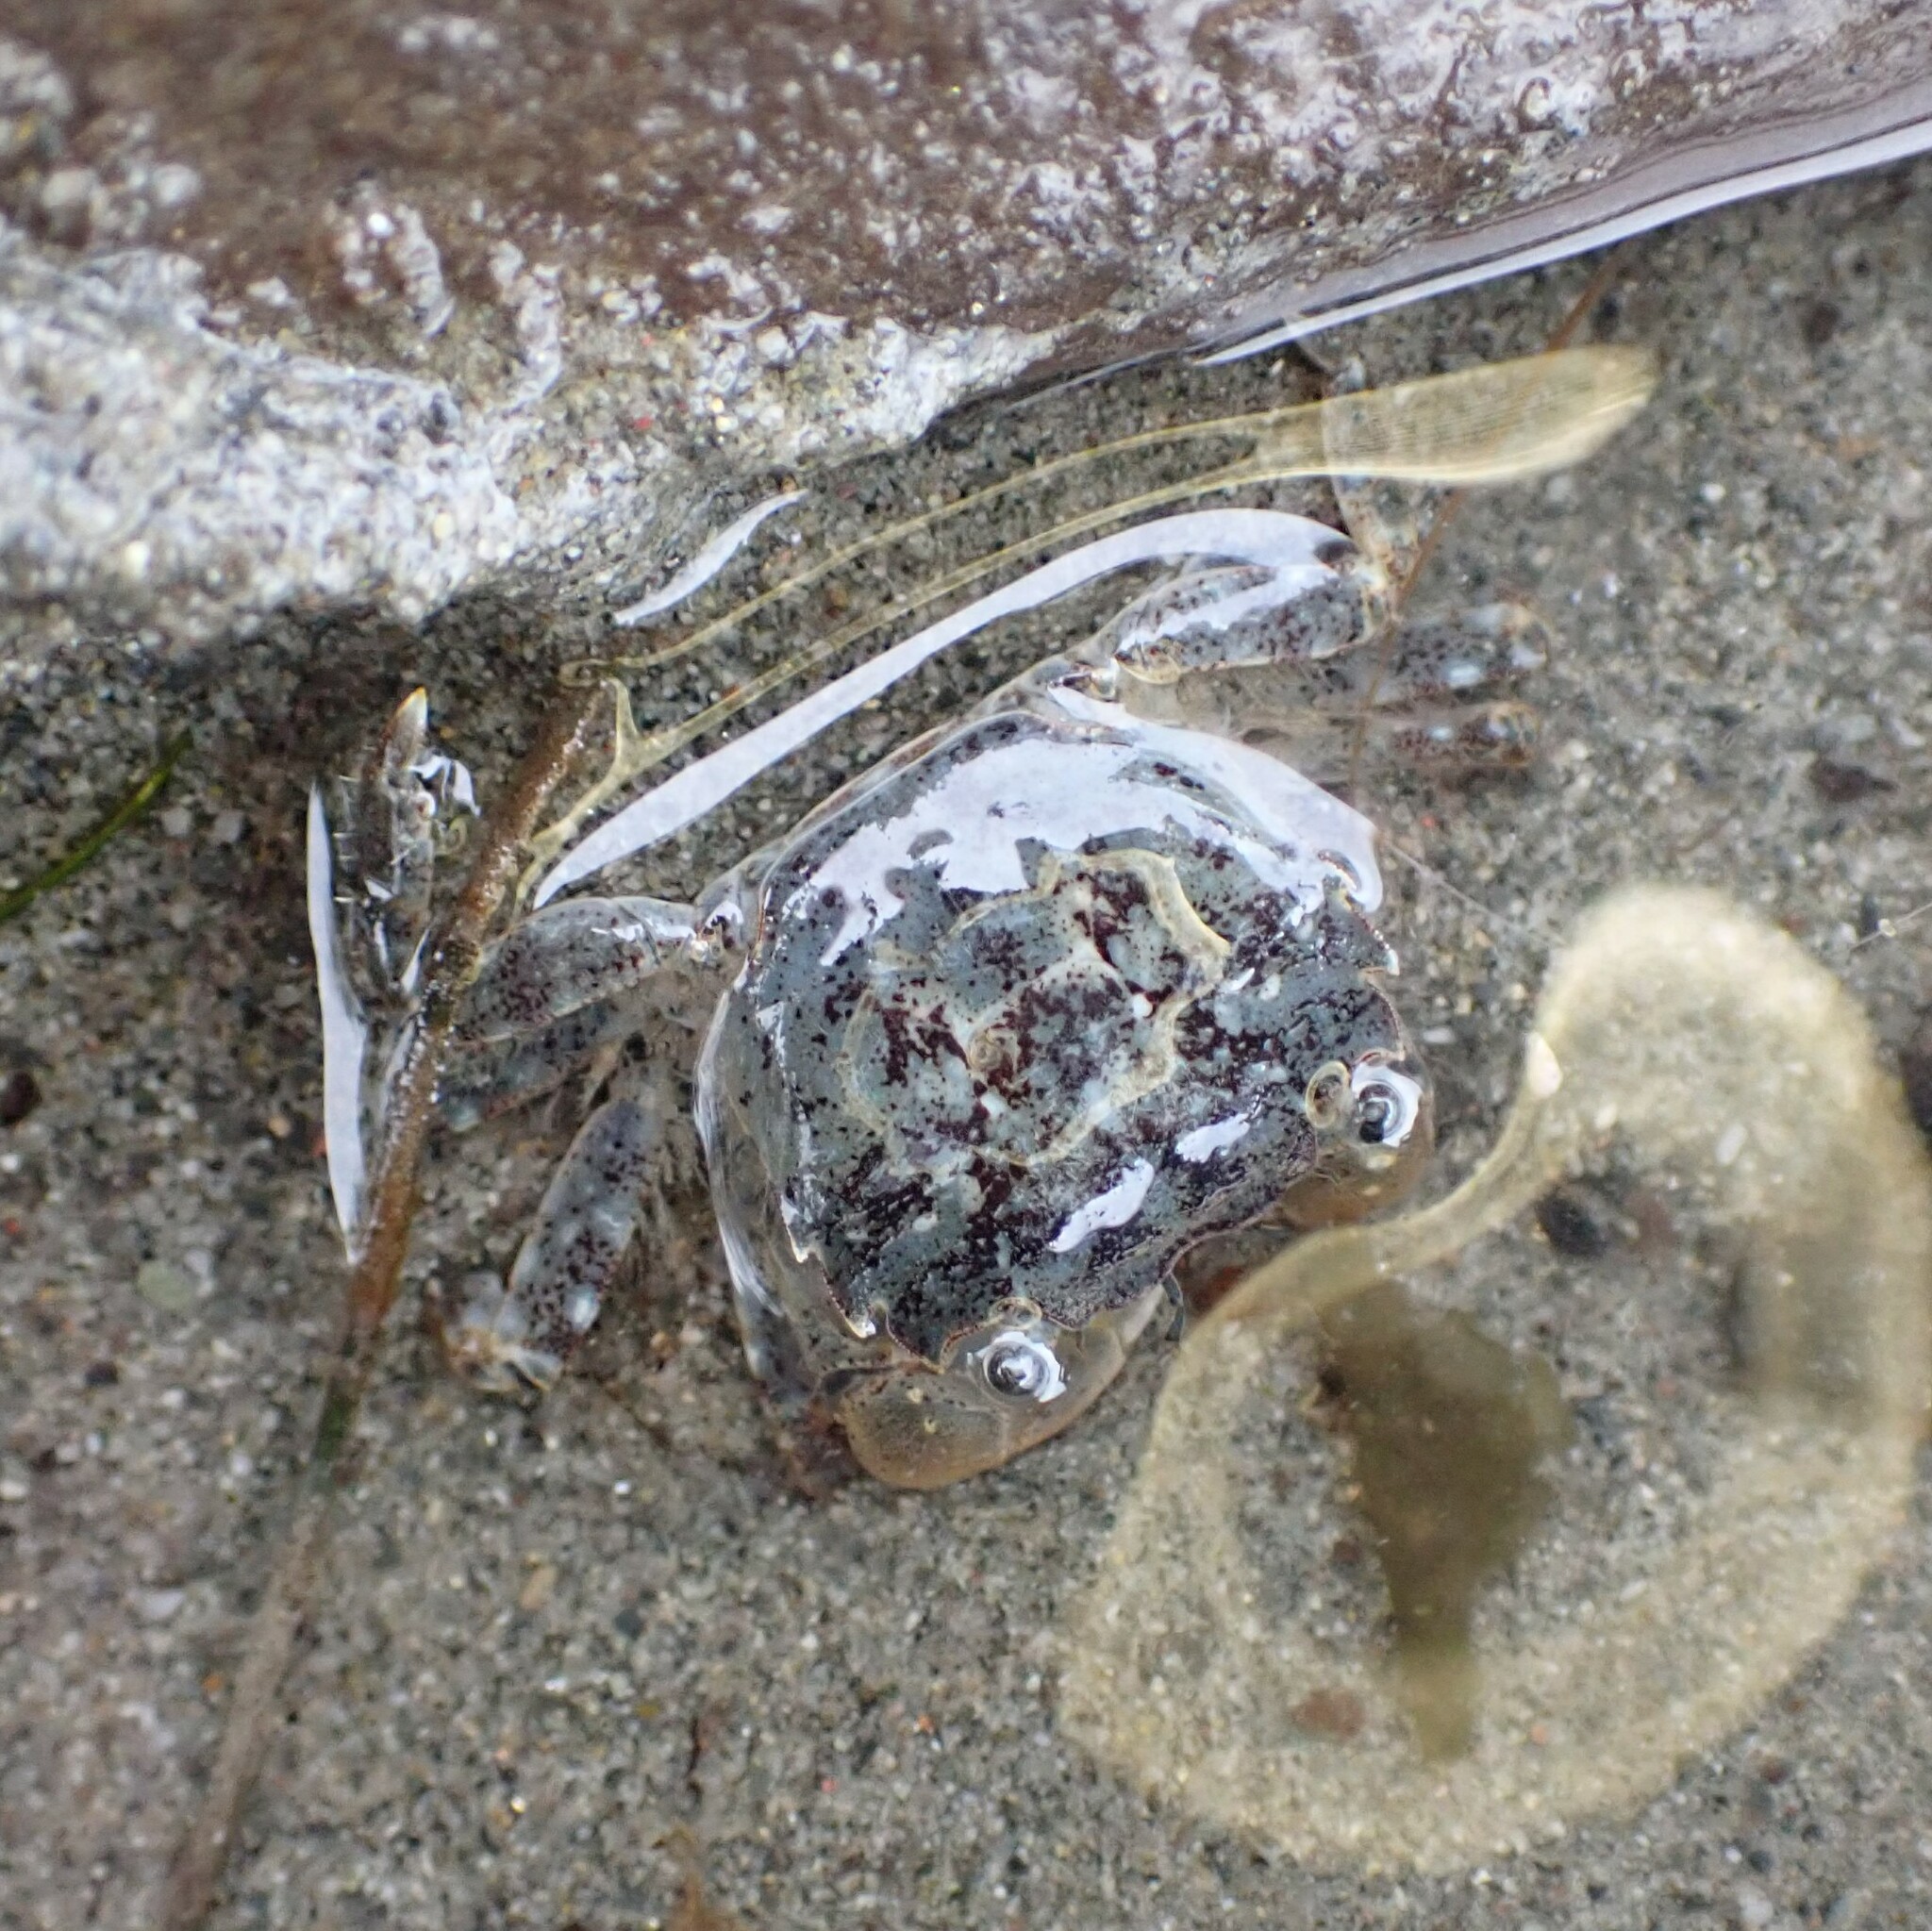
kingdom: Animalia
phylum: Arthropoda
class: Malacostraca
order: Decapoda
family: Varunidae
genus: Hemigrapsus
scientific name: Hemigrapsus oregonensis
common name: Yellow shore crab
